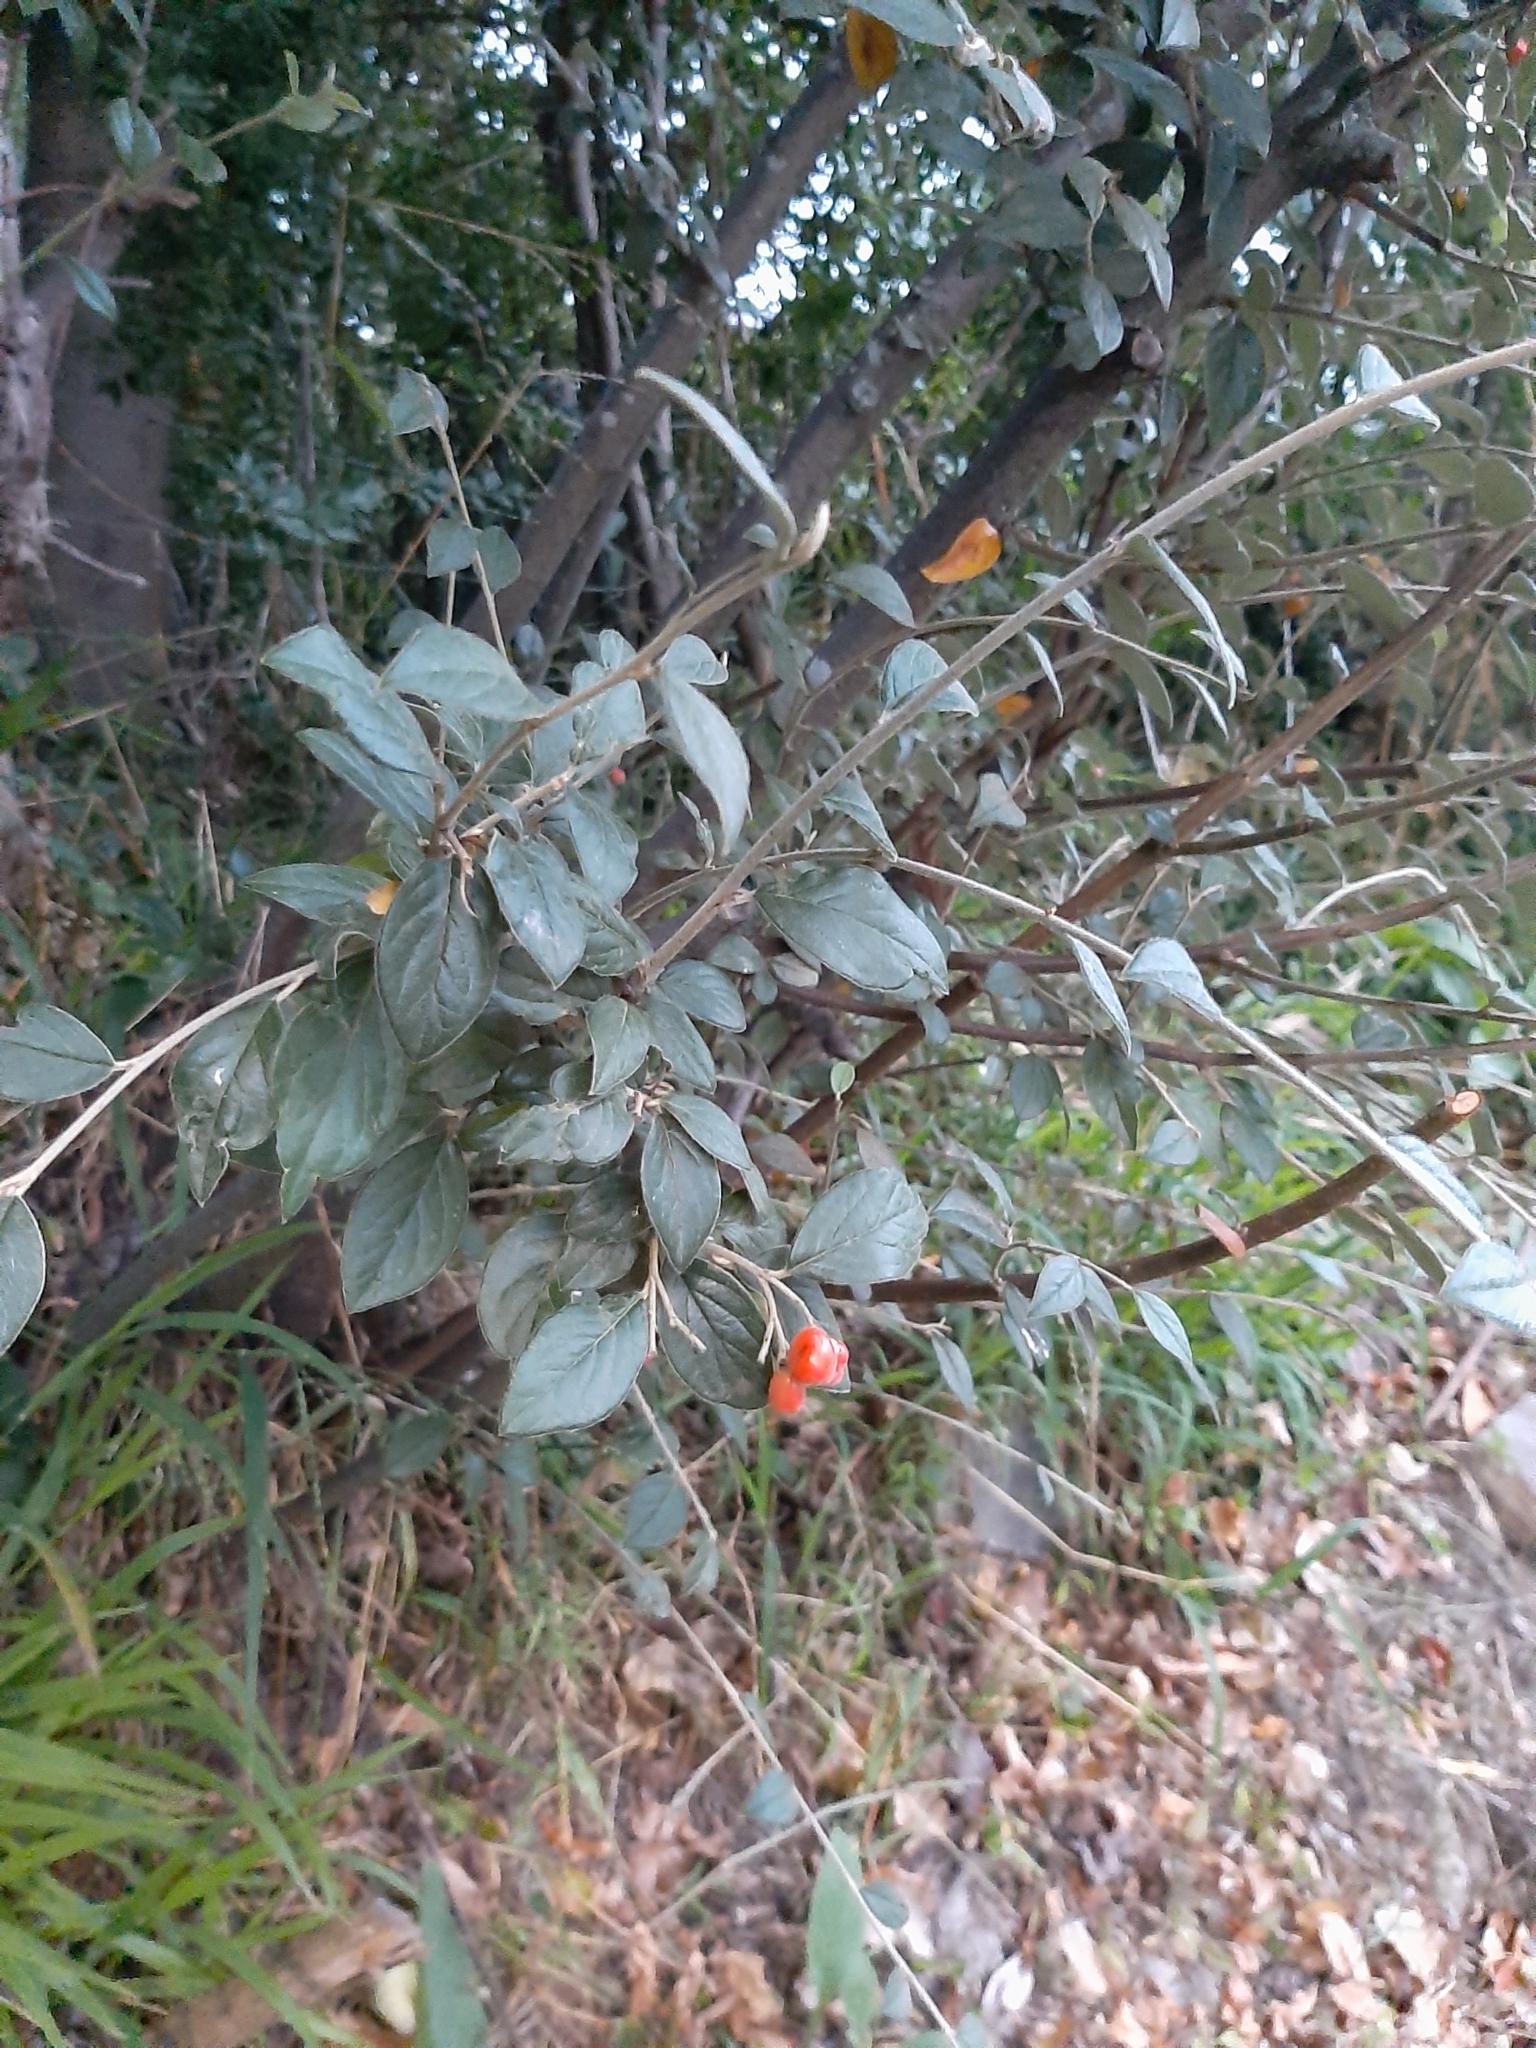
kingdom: Plantae
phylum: Tracheophyta
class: Magnoliopsida
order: Rosales
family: Rosaceae
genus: Cotoneaster
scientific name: Cotoneaster franchetii
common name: Franchet's cotoneaster
